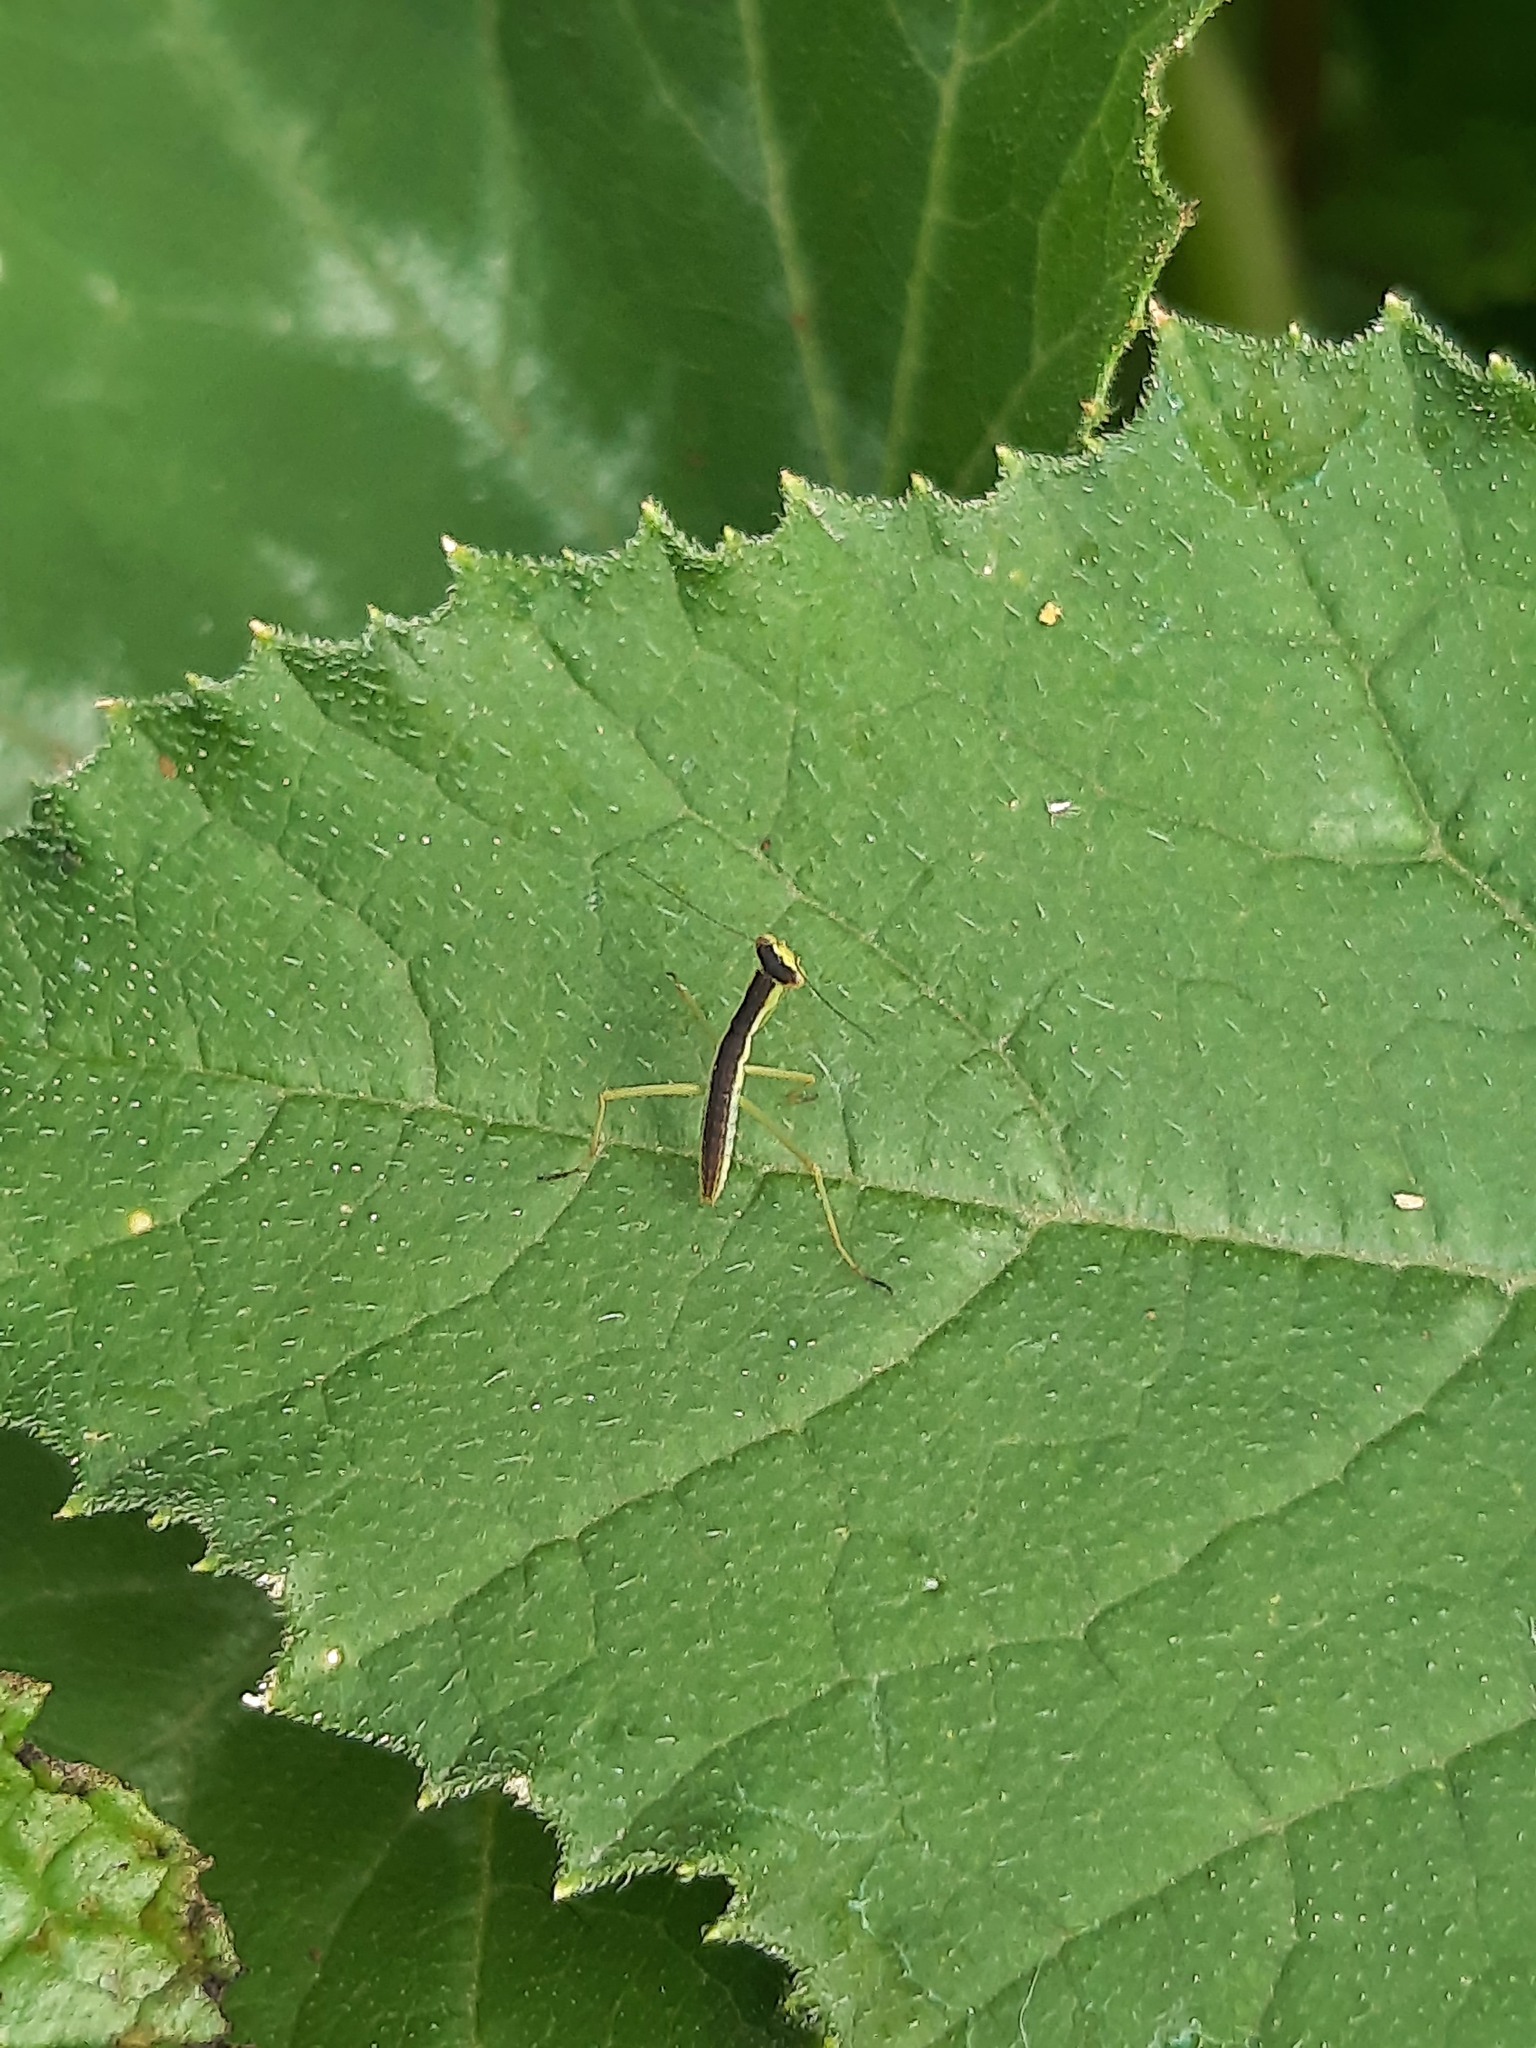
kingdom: Animalia
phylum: Arthropoda
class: Insecta
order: Mantodea
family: Mantidae
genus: Orthodera
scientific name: Orthodera novaezealandiae
